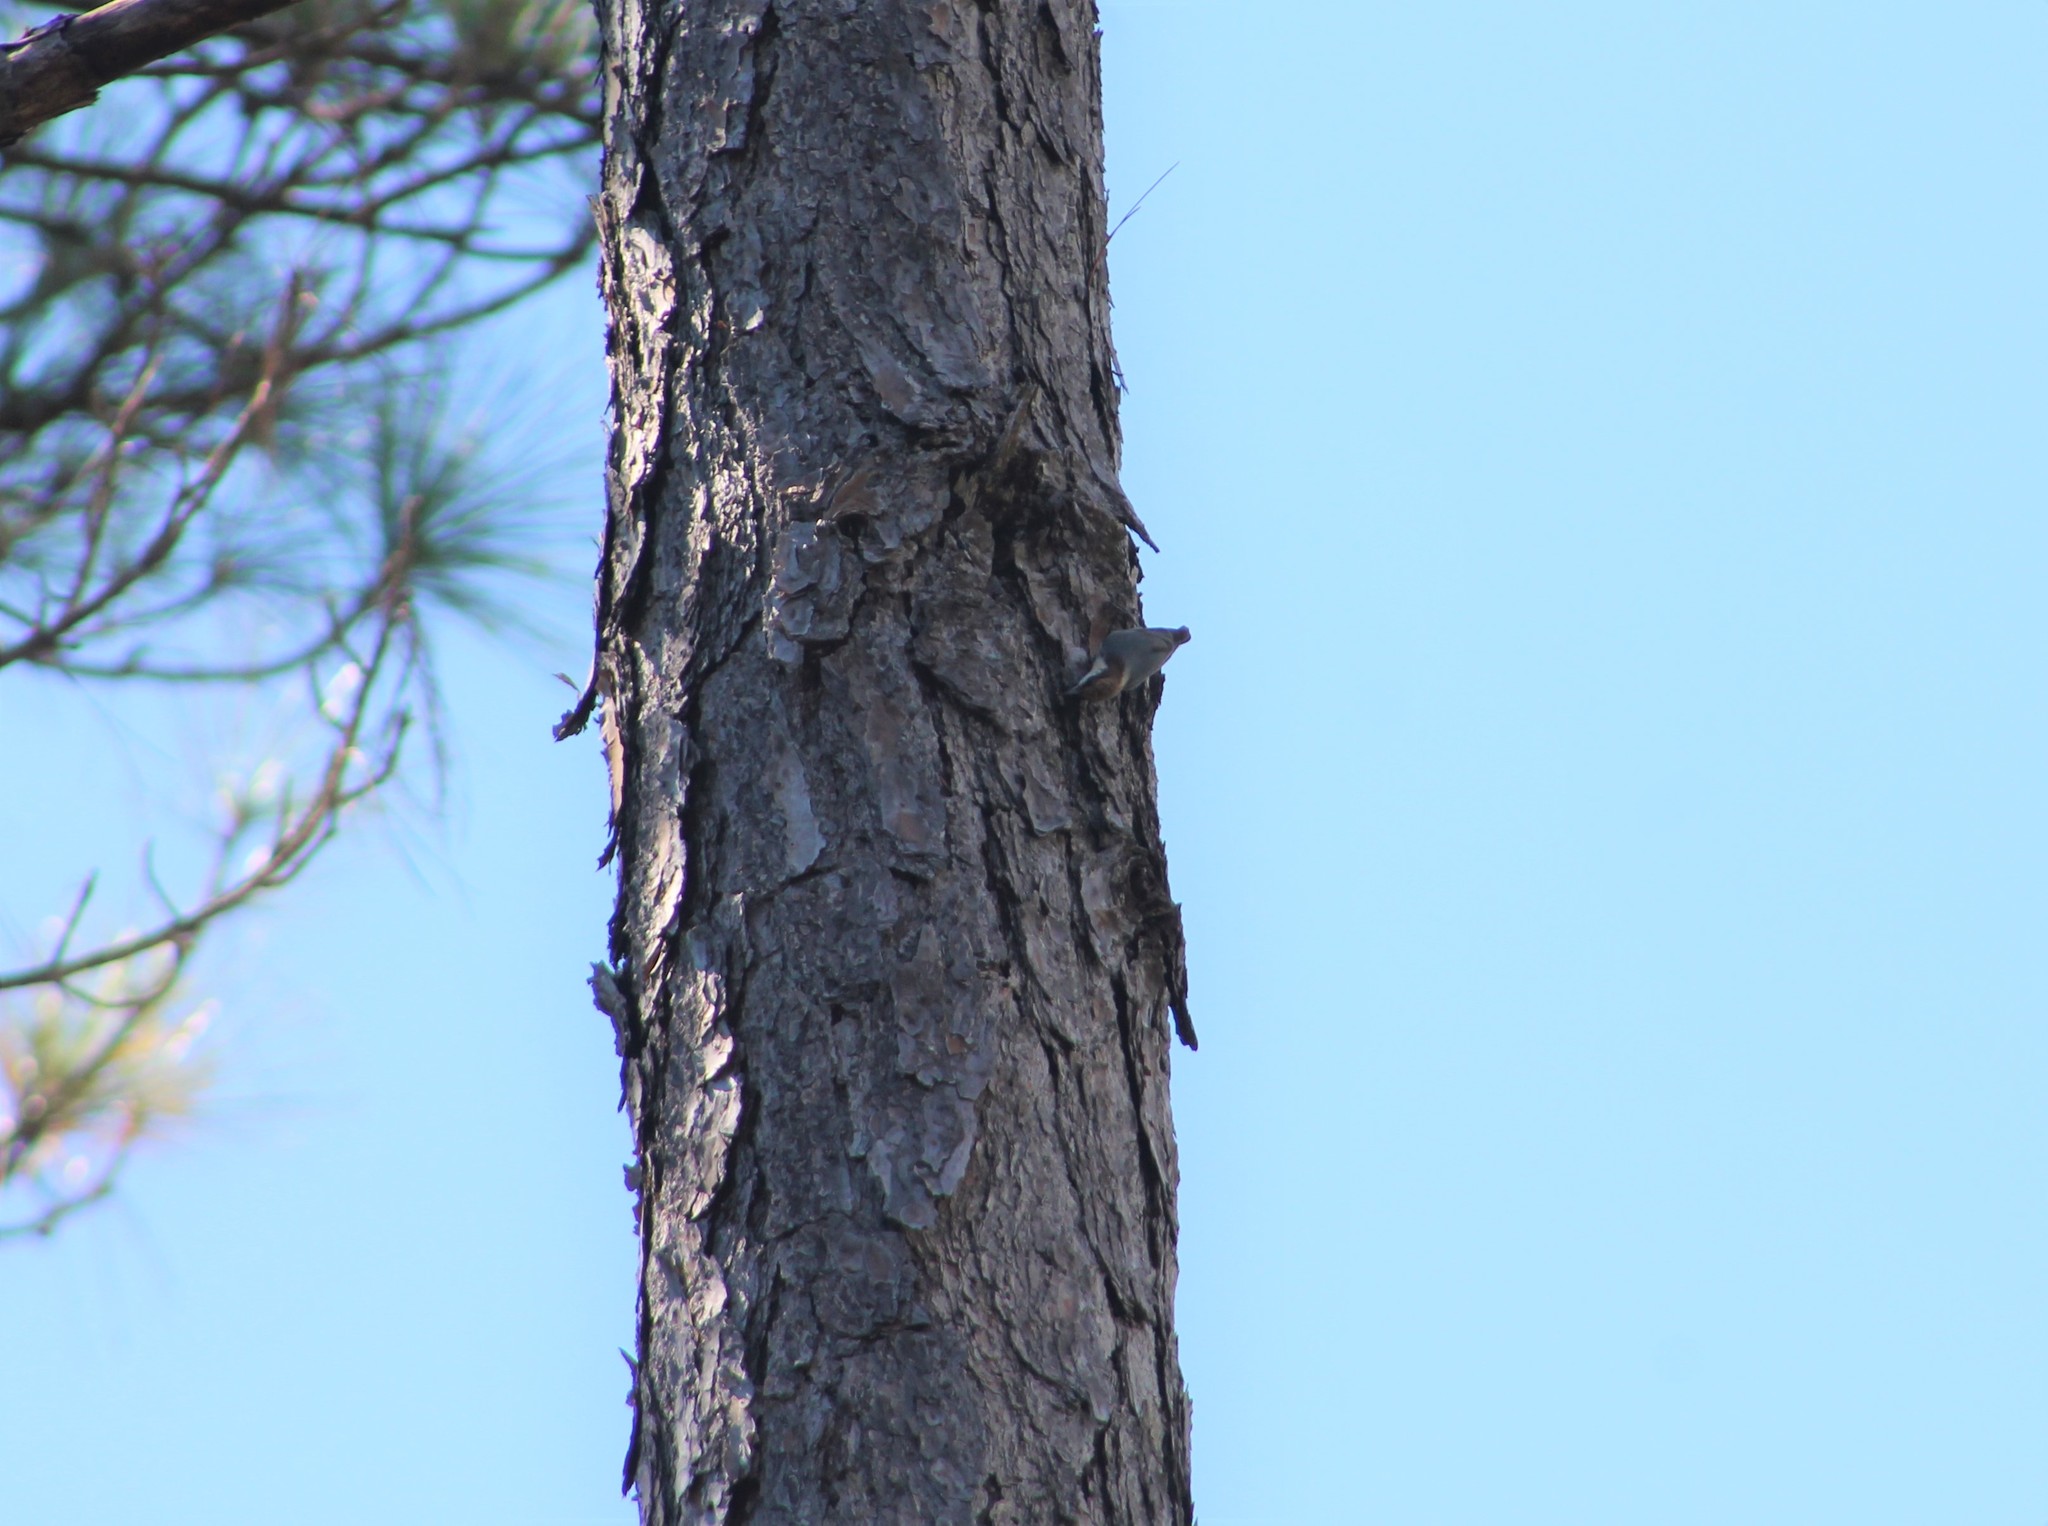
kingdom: Animalia
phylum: Chordata
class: Aves
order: Passeriformes
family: Sittidae
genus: Sitta
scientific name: Sitta pusilla
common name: Brown-headed nuthatch
